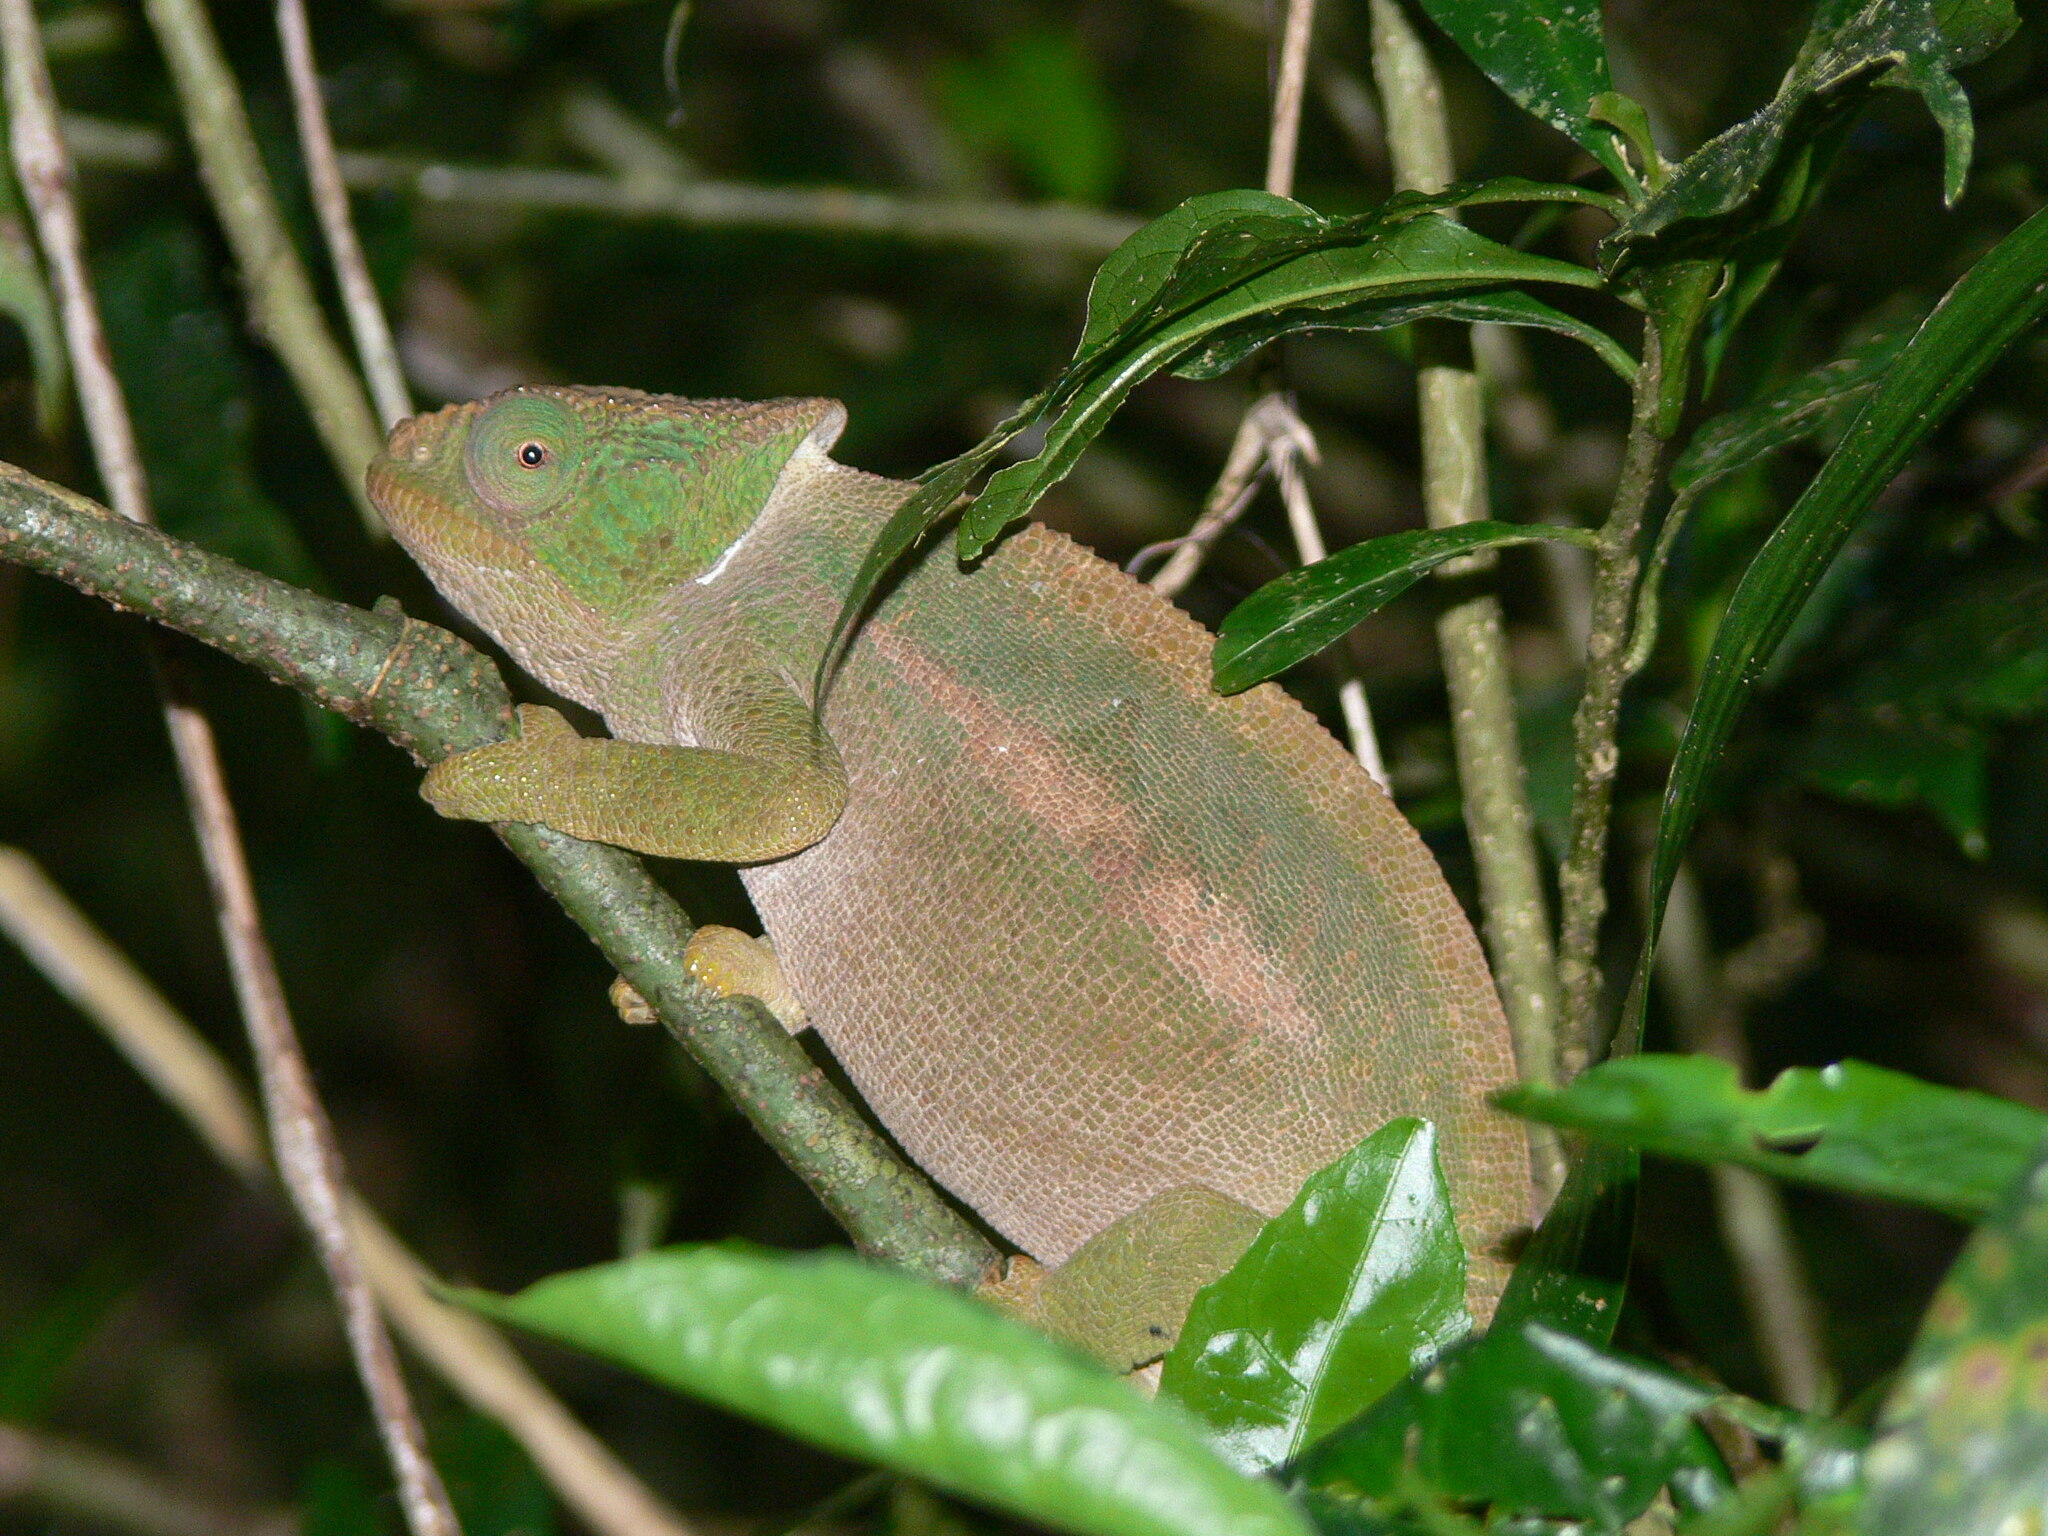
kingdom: Animalia
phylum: Chordata
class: Squamata
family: Chamaeleonidae
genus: Calumma
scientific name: Calumma ambreense
